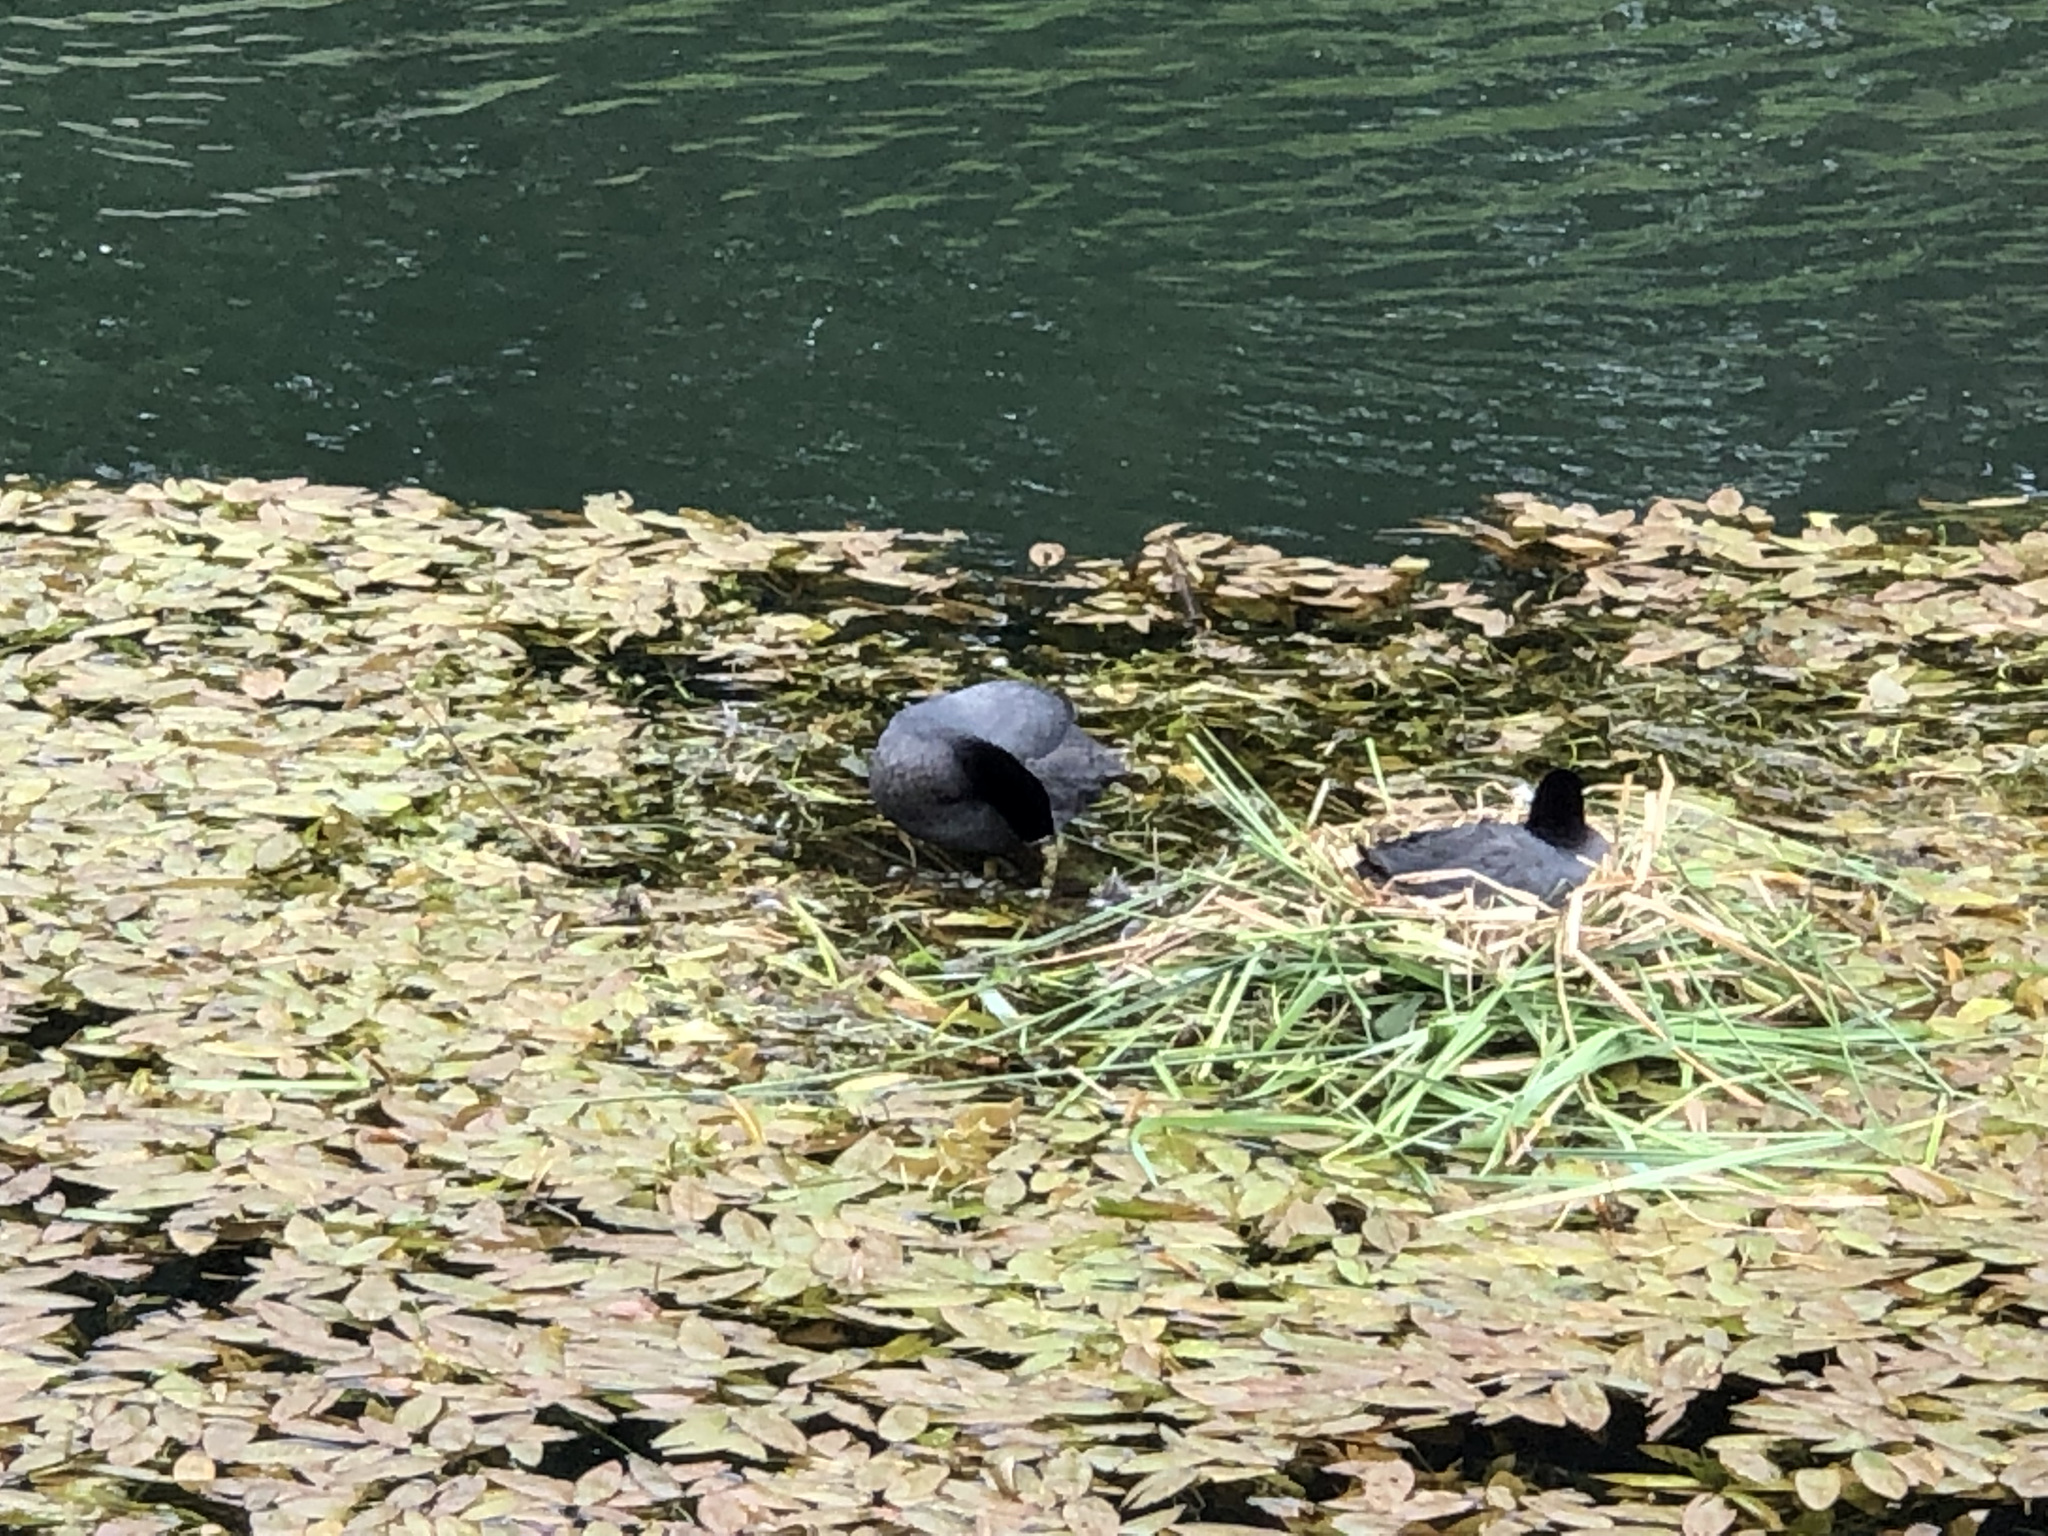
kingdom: Animalia
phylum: Chordata
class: Aves
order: Gruiformes
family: Rallidae
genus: Fulica
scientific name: Fulica atra
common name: Eurasian coot
